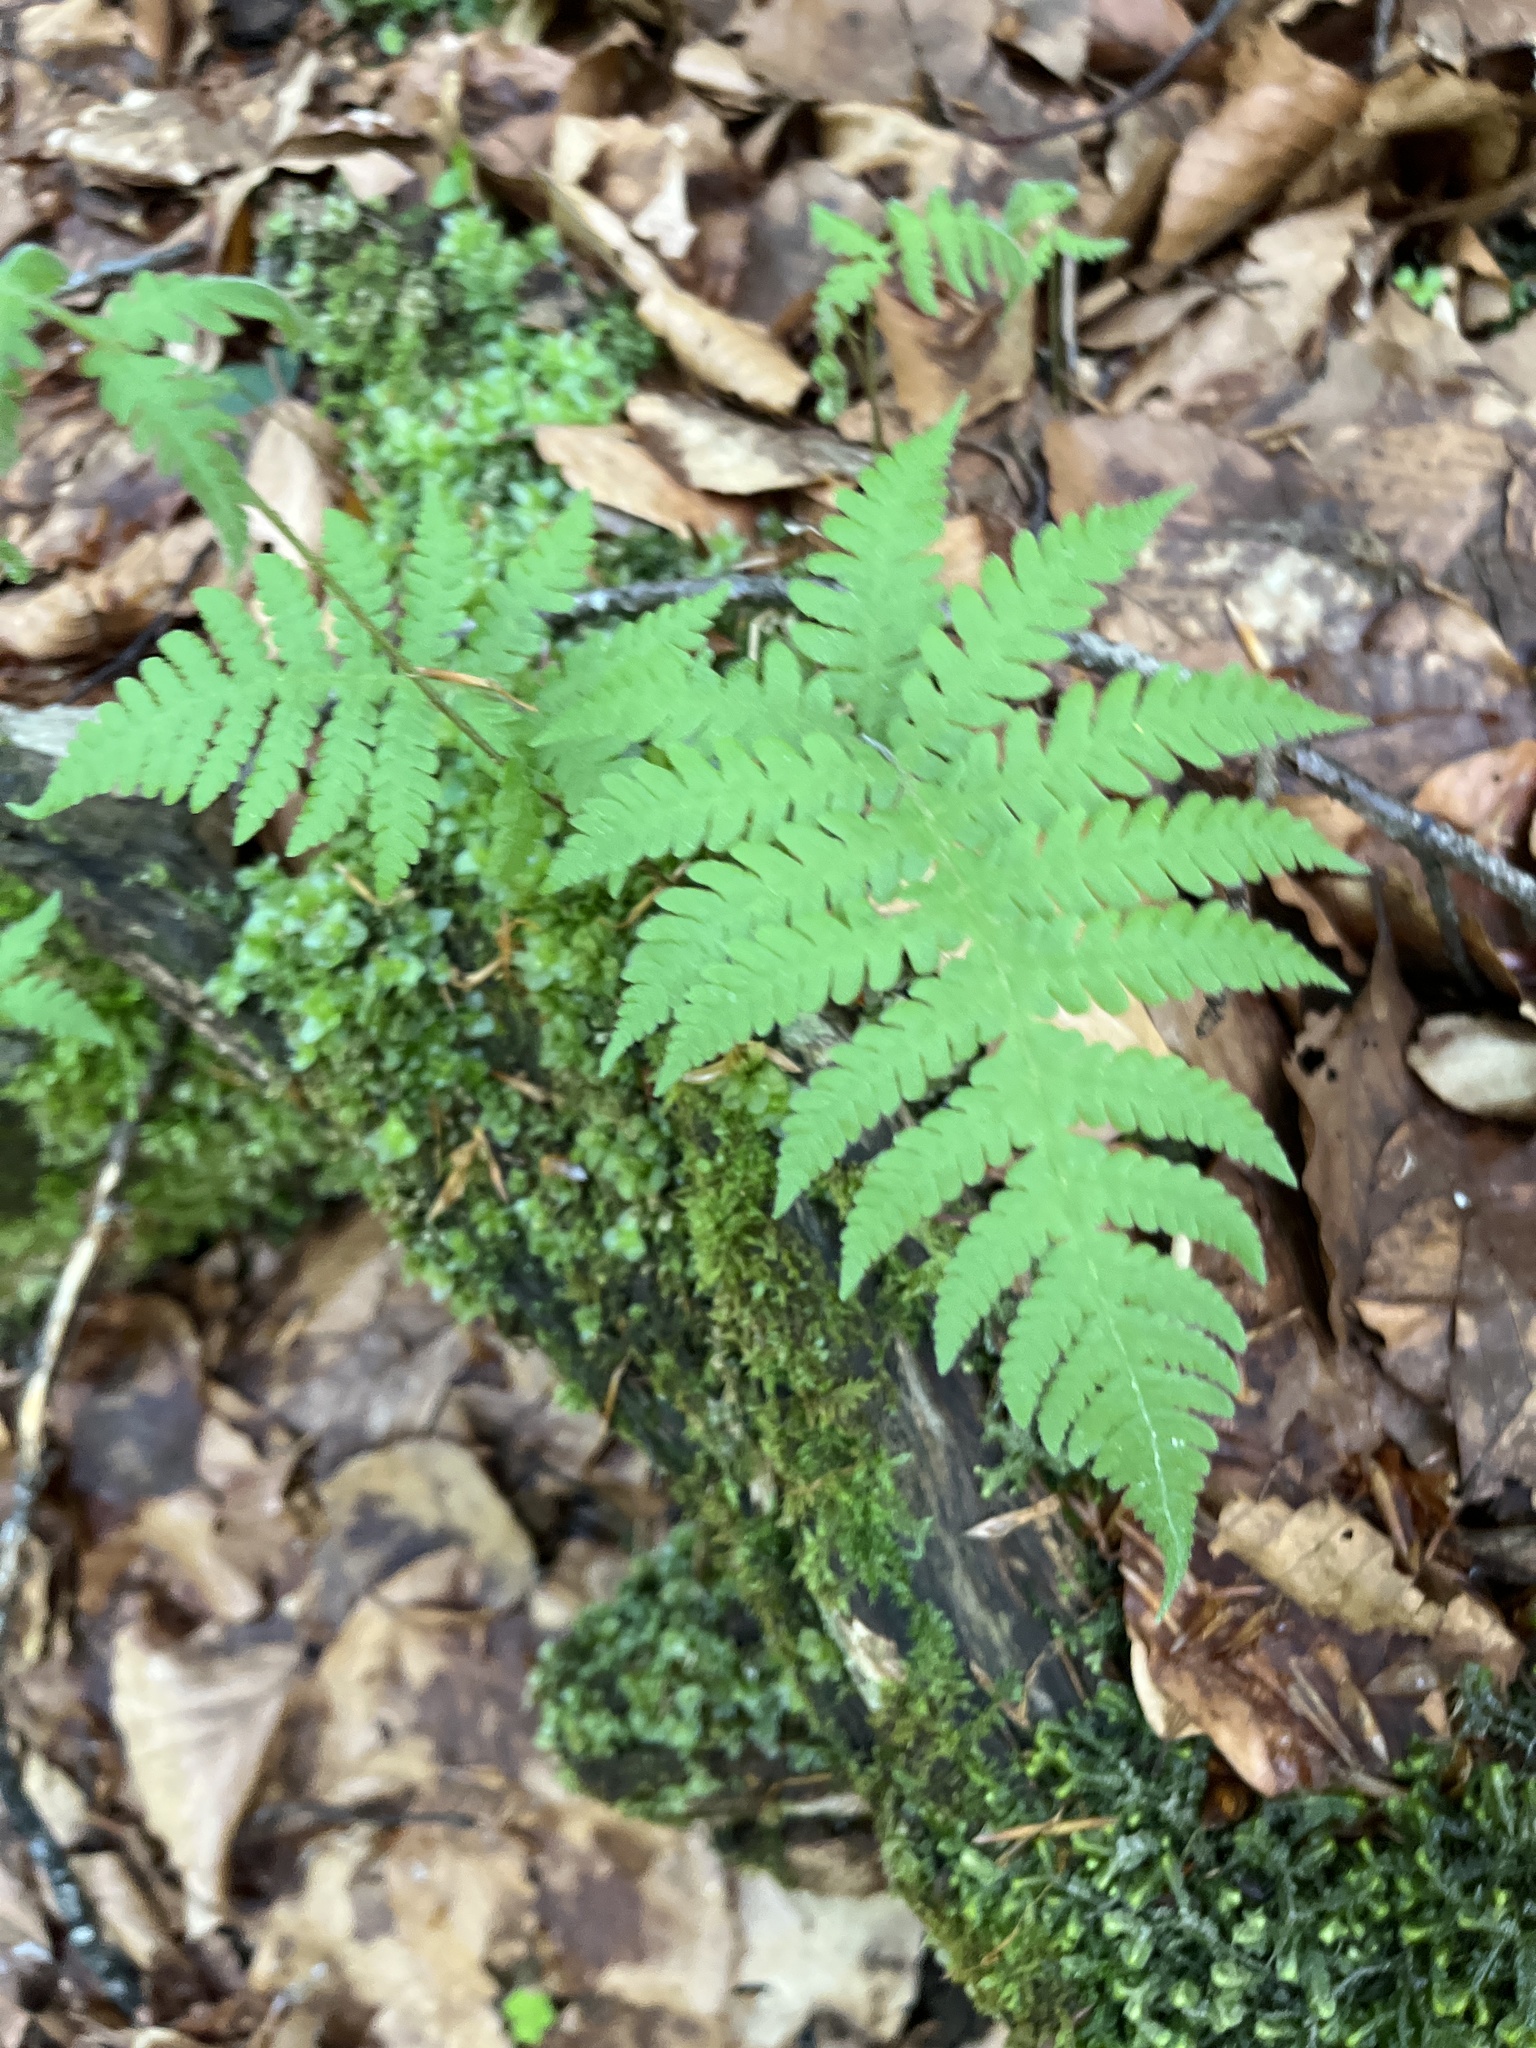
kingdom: Plantae
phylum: Tracheophyta
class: Polypodiopsida
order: Polypodiales
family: Thelypteridaceae
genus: Phegopteris
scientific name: Phegopteris connectilis
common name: Beech fern
